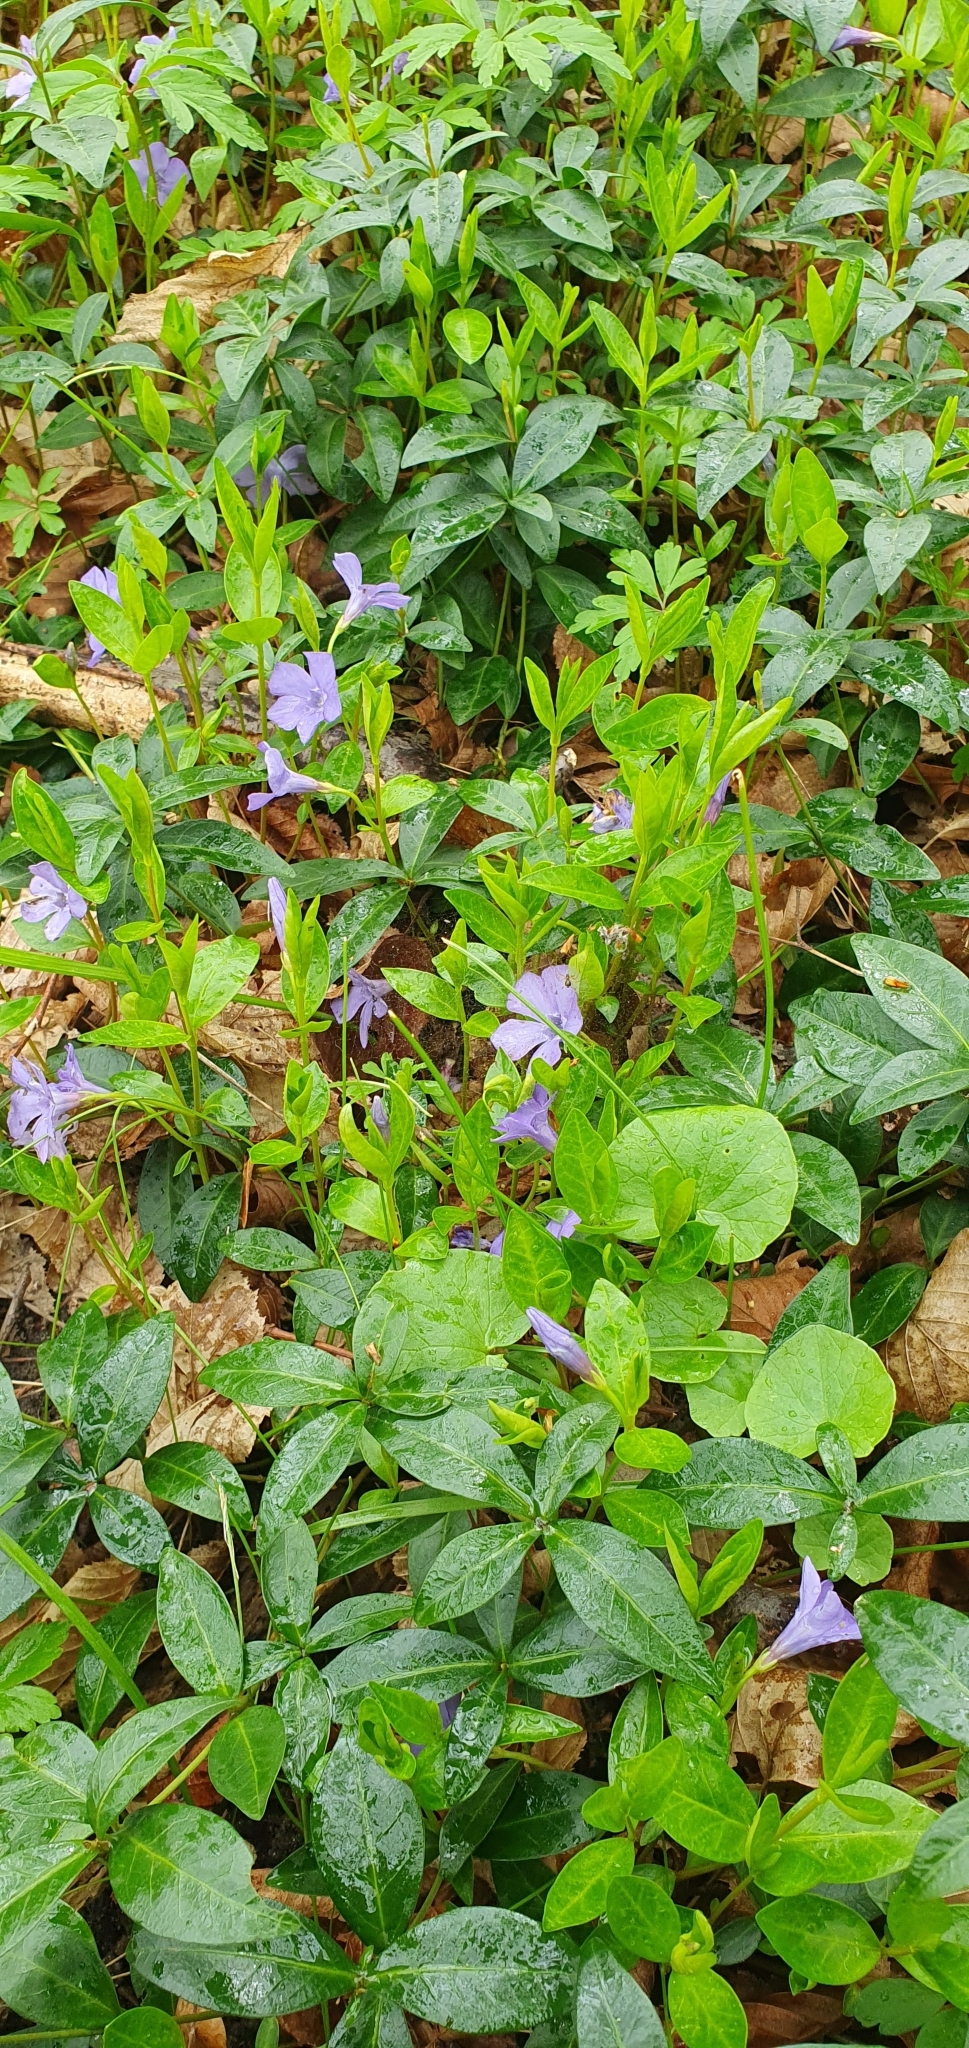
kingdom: Plantae
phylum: Tracheophyta
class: Magnoliopsida
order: Gentianales
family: Apocynaceae
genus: Vinca
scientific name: Vinca minor
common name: Lesser periwinkle
